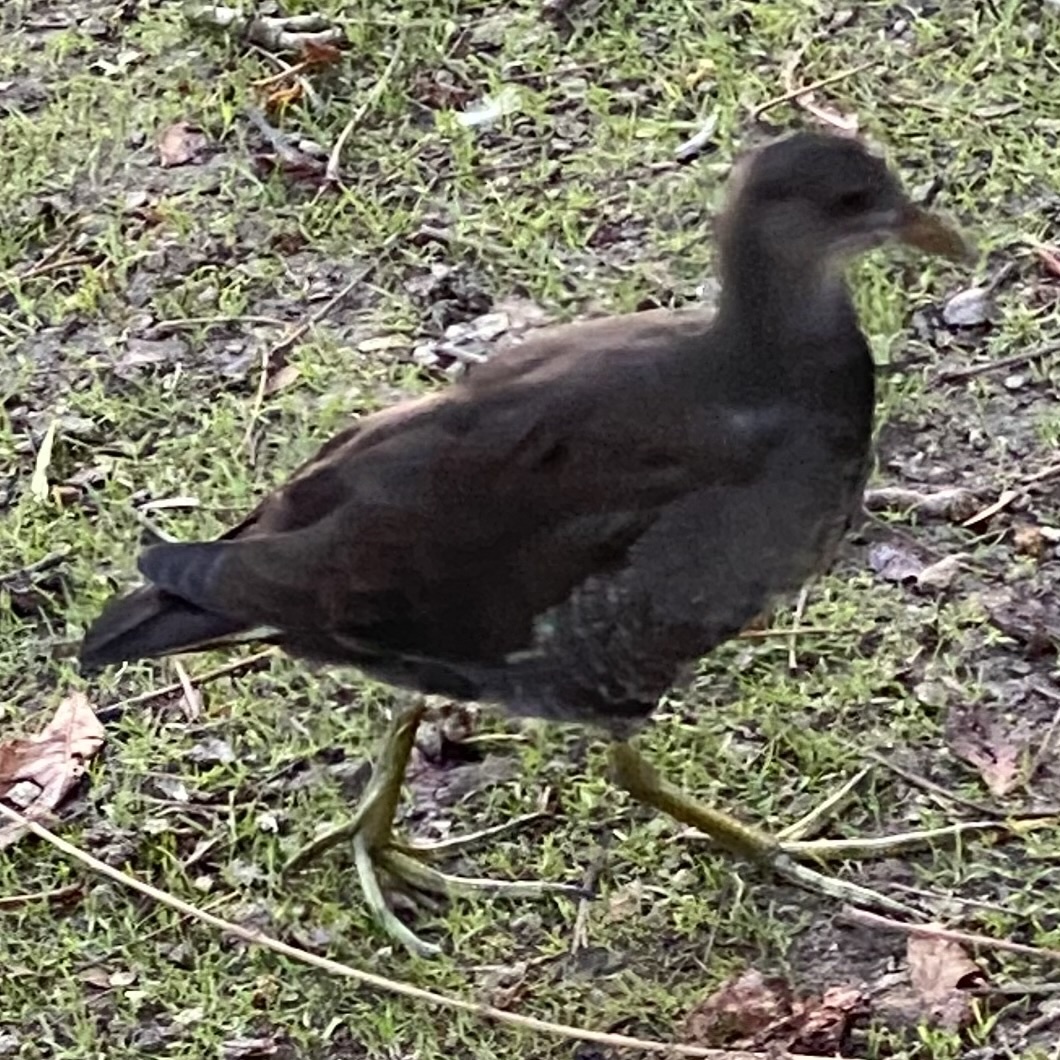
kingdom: Animalia
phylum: Chordata
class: Aves
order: Gruiformes
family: Rallidae
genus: Gallinula
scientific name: Gallinula chloropus
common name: Common moorhen
